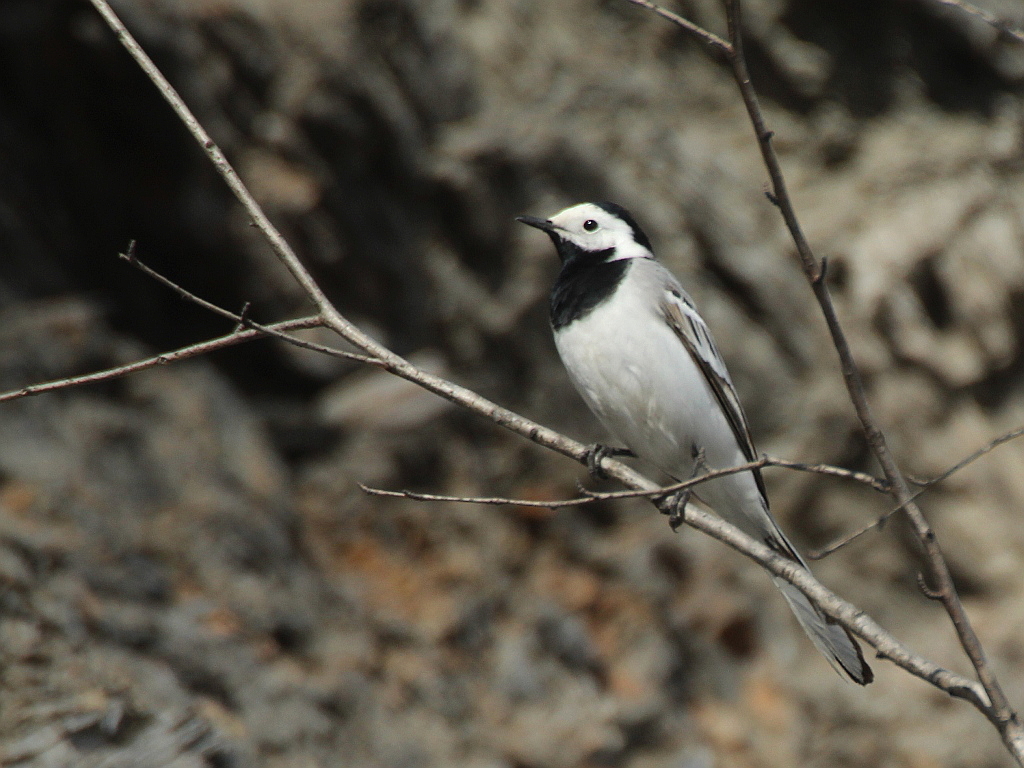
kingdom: Animalia
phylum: Chordata
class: Aves
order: Passeriformes
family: Motacillidae
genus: Motacilla
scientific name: Motacilla alba
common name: White wagtail
